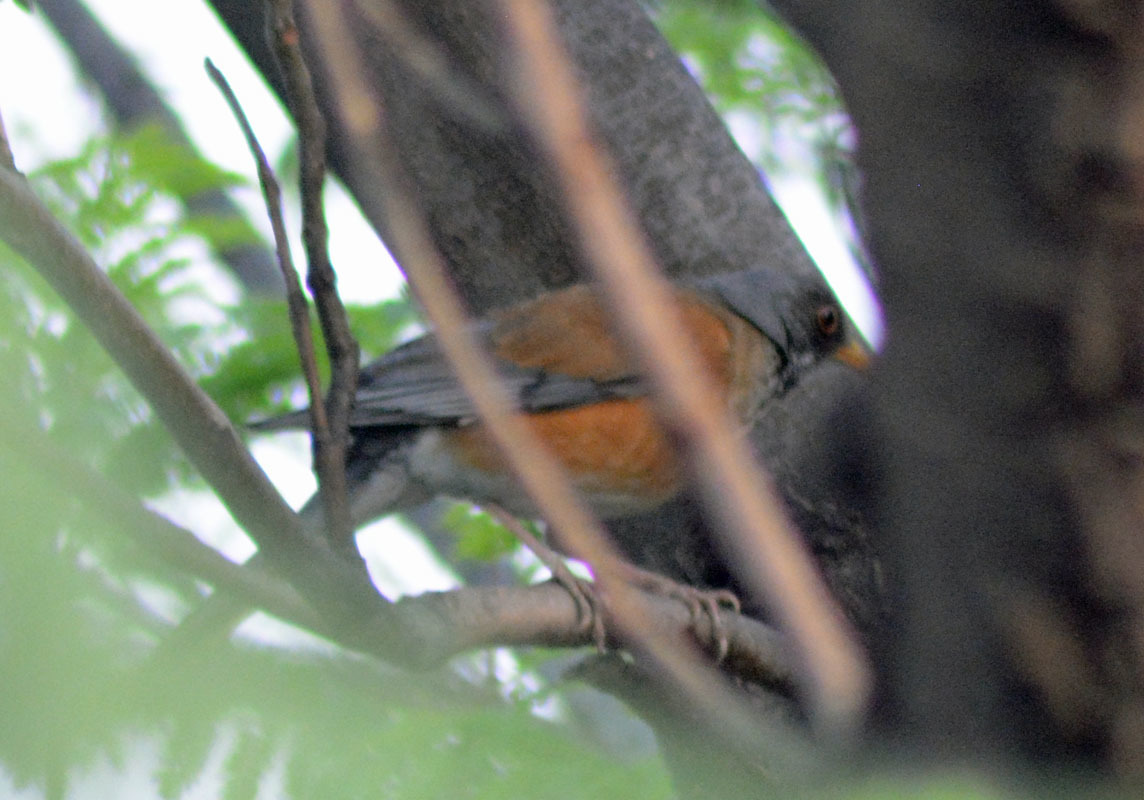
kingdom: Animalia
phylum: Chordata
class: Aves
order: Passeriformes
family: Turdidae
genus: Turdus
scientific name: Turdus rufopalliatus
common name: Rufous-backed robin
